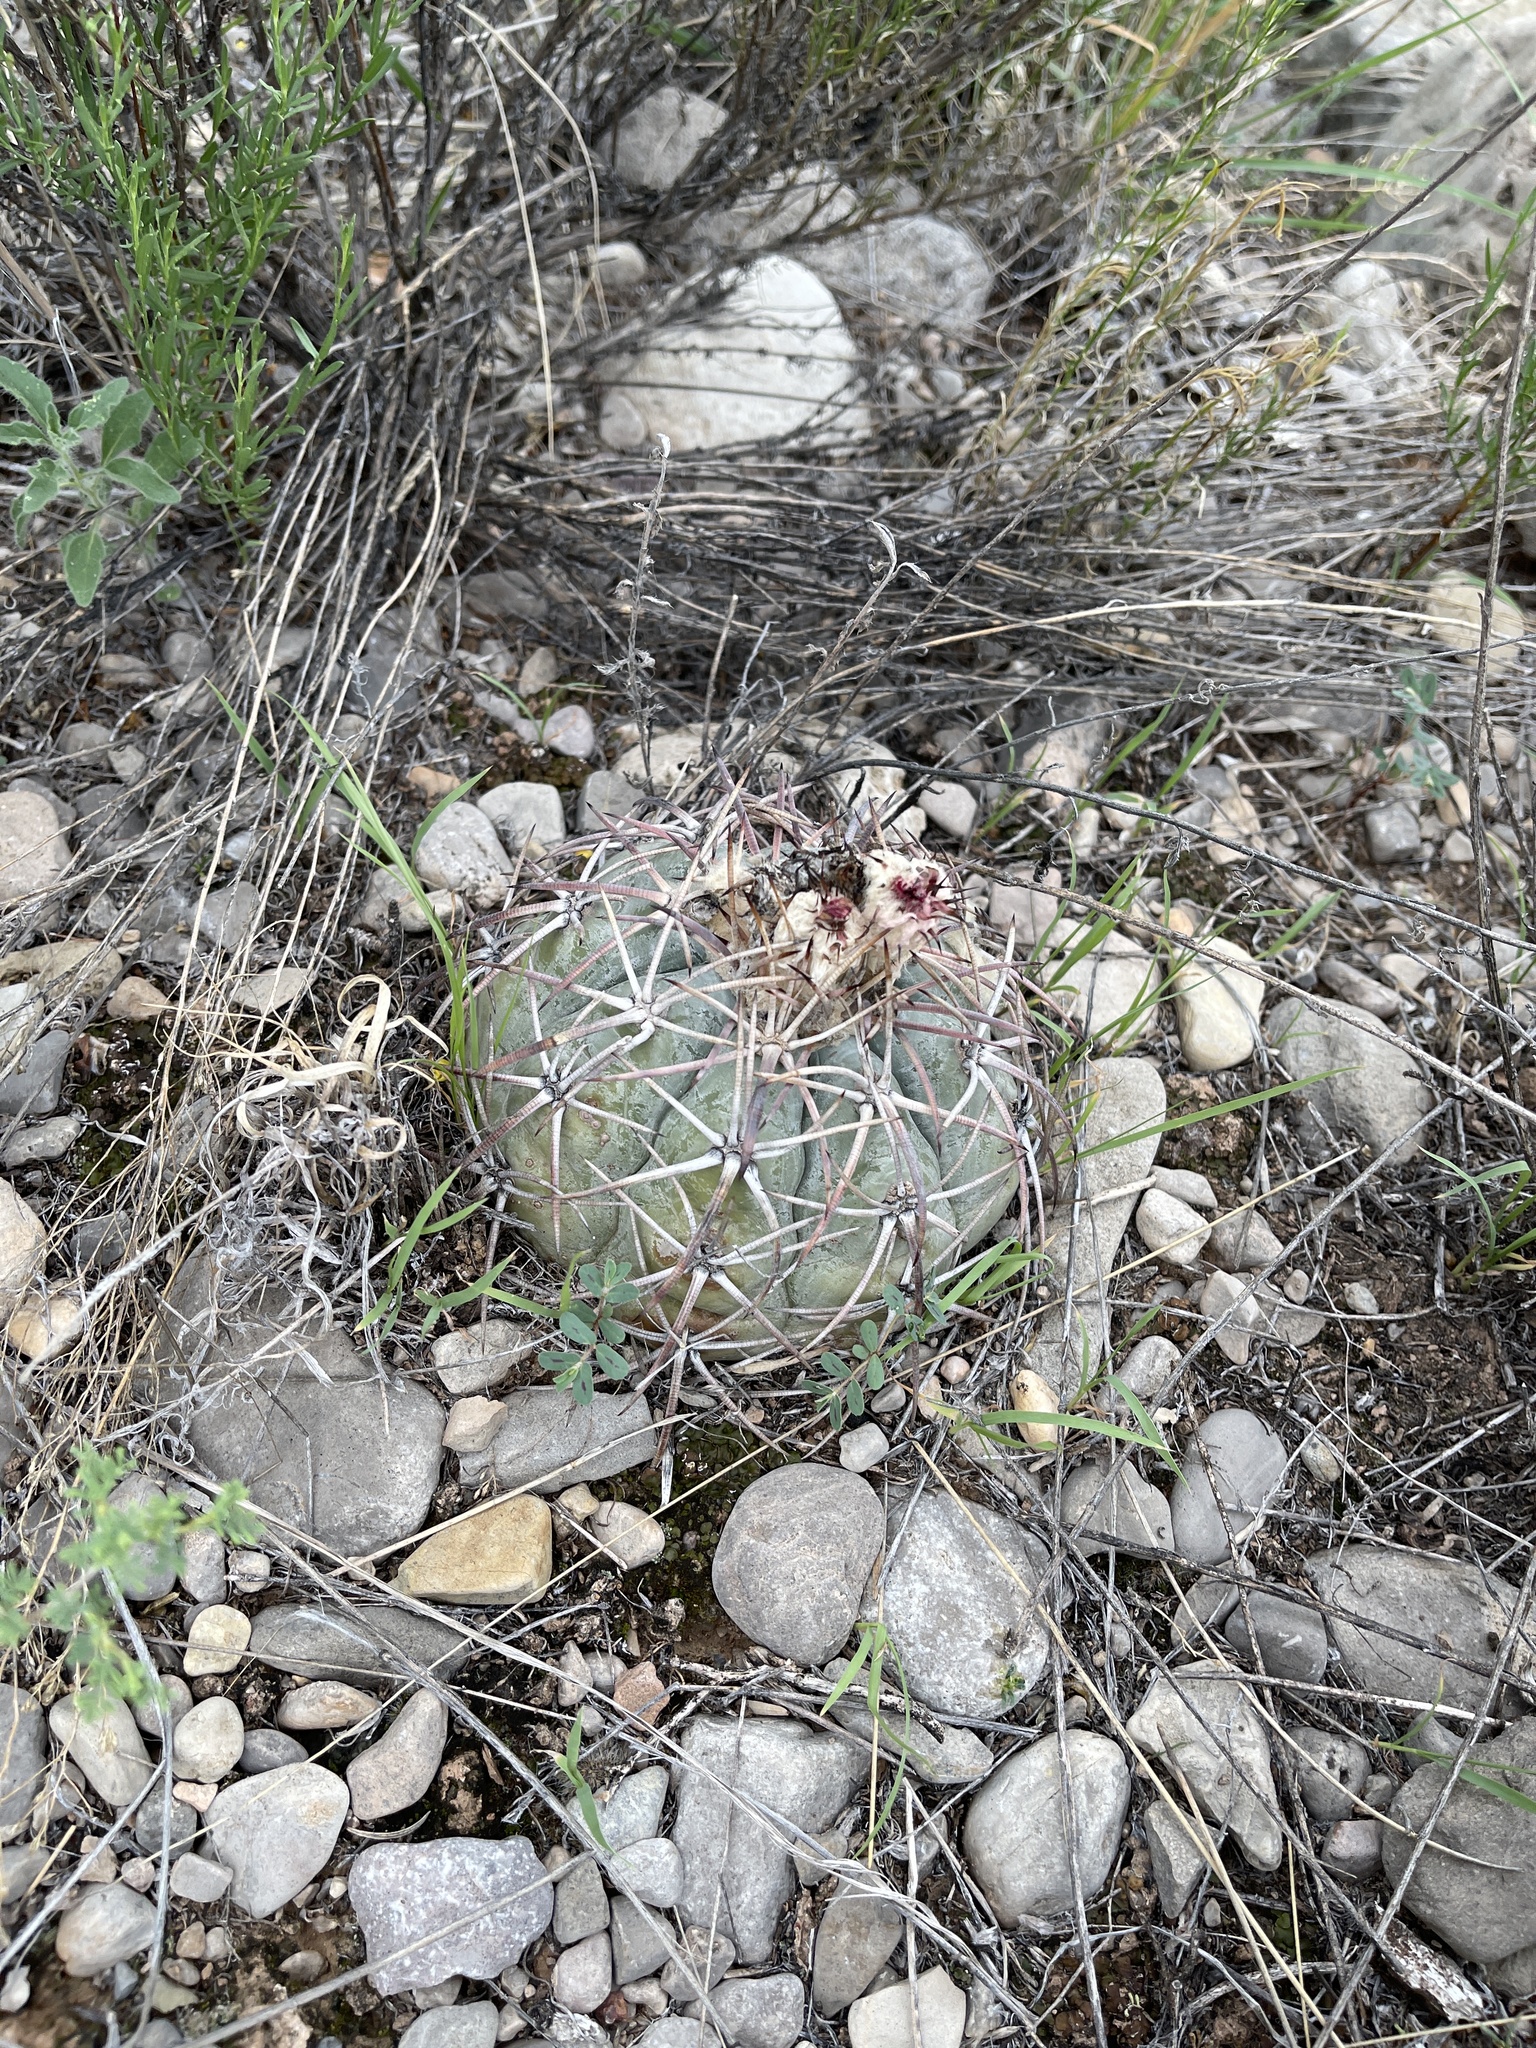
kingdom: Plantae
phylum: Tracheophyta
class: Magnoliopsida
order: Caryophyllales
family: Cactaceae
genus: Echinocactus
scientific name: Echinocactus horizonthalonius
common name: Devilshead
